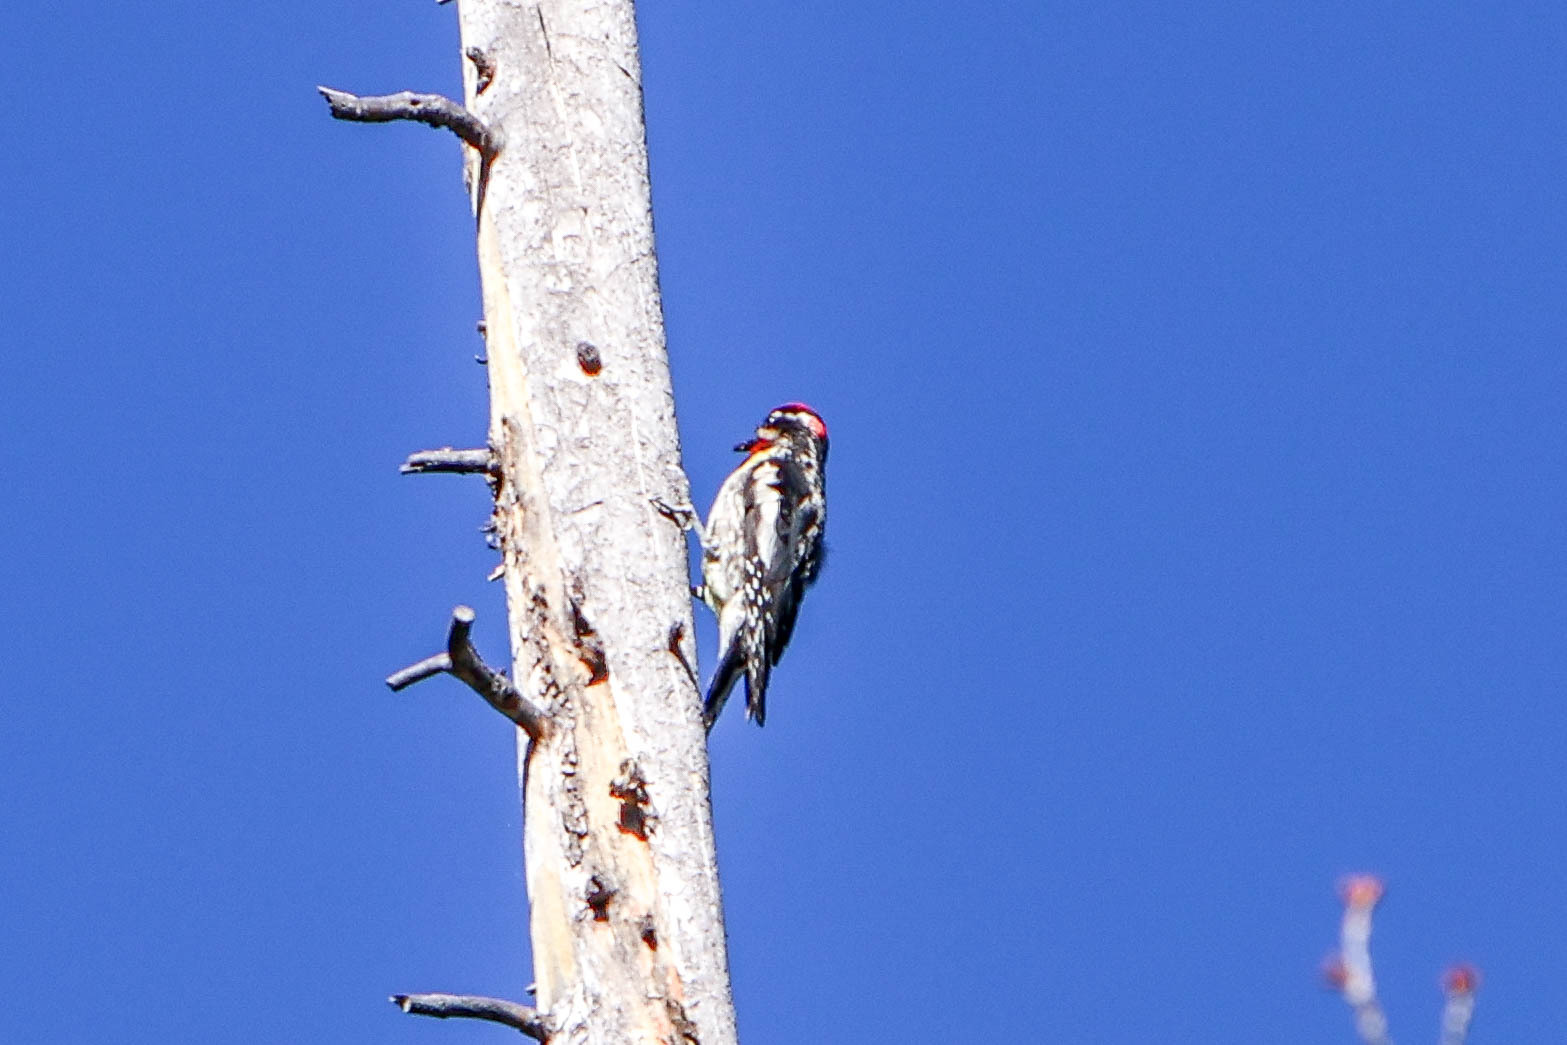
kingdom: Animalia
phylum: Chordata
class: Aves
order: Piciformes
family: Picidae
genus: Sphyrapicus
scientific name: Sphyrapicus nuchalis
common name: Red-naped sapsucker
